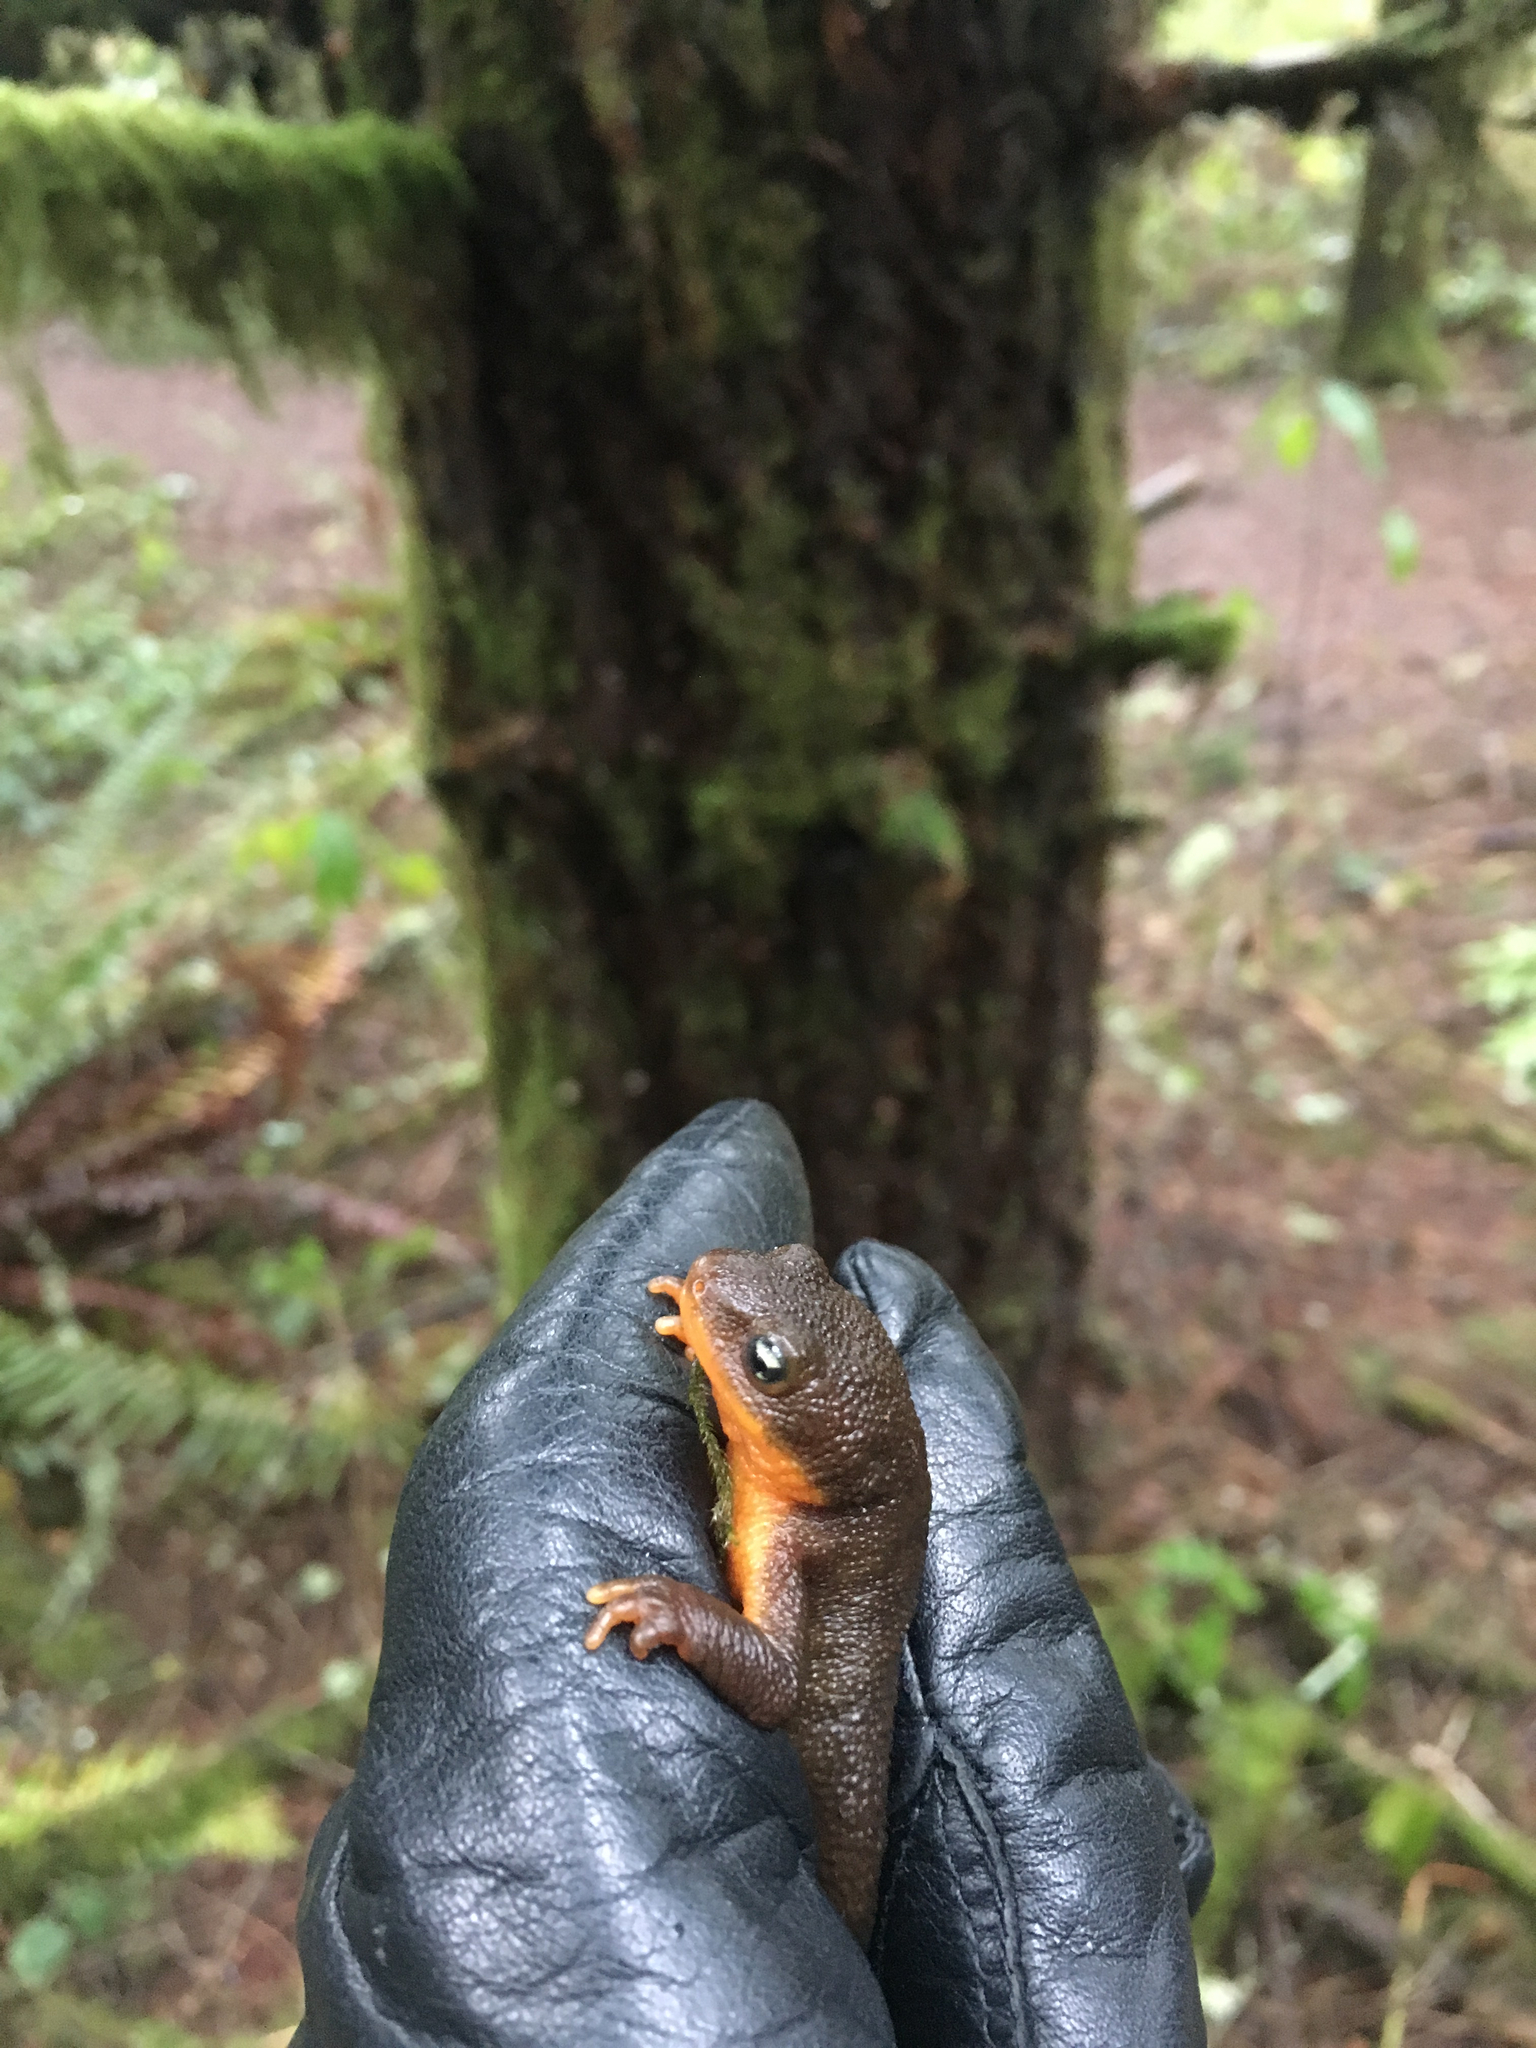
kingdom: Animalia
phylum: Chordata
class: Amphibia
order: Caudata
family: Salamandridae
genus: Taricha
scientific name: Taricha granulosa
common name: Roughskin newt
